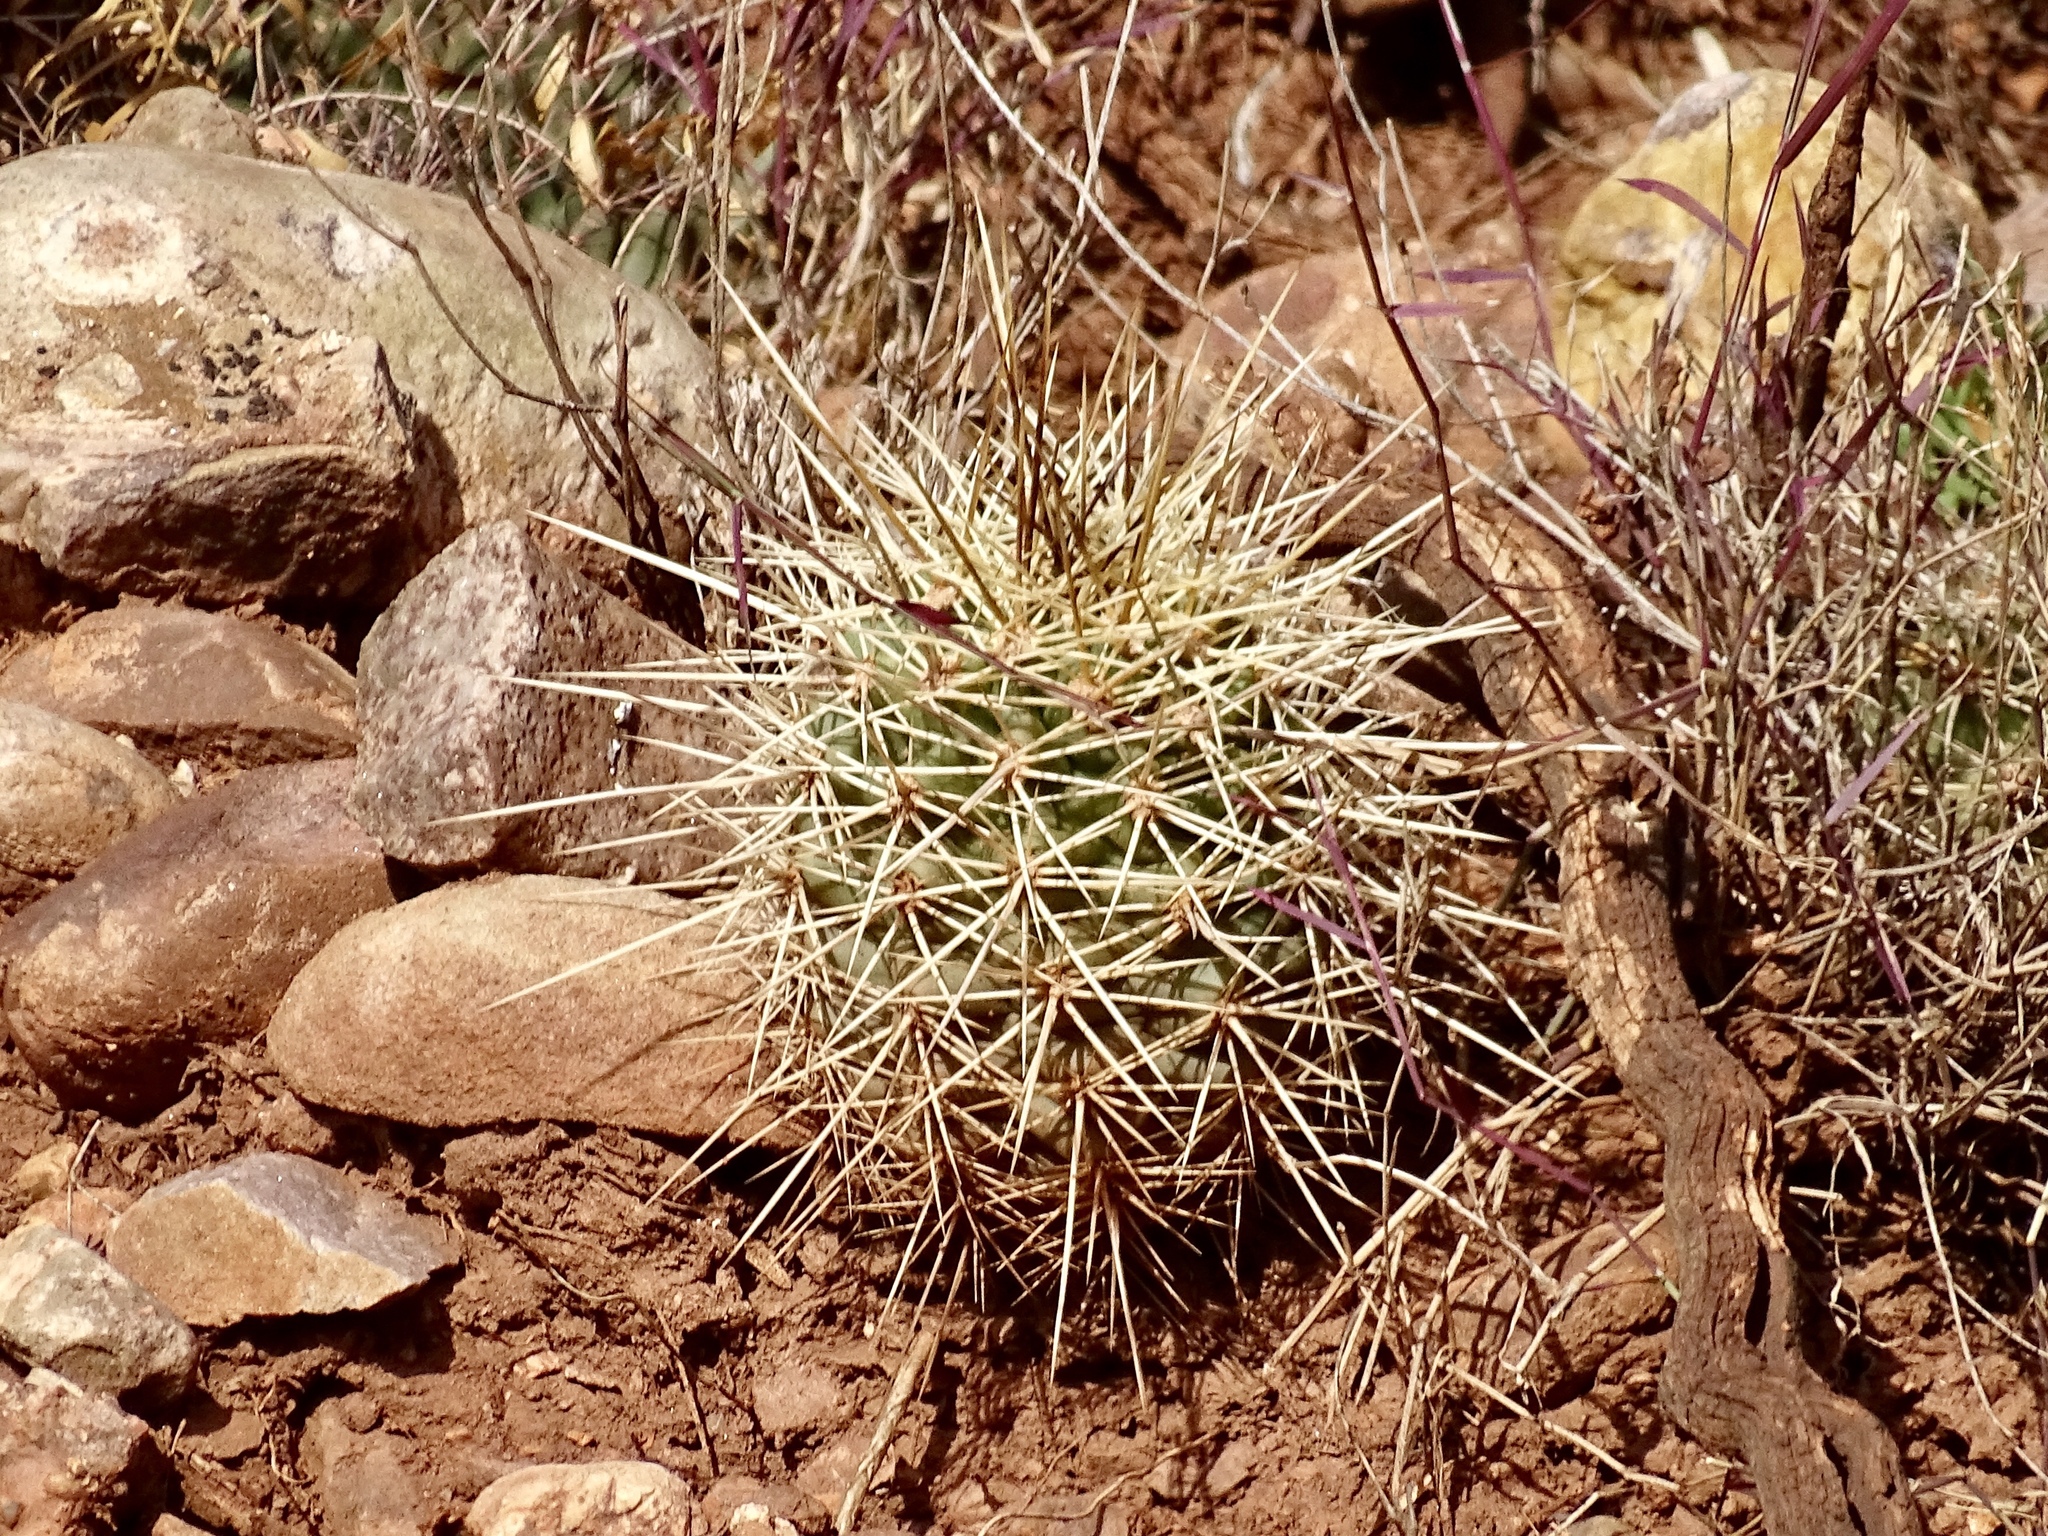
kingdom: Plantae
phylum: Tracheophyta
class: Magnoliopsida
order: Caryophyllales
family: Cactaceae
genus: Echinocereus
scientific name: Echinocereus coccineus
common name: Scarlet hedgehog cactus
